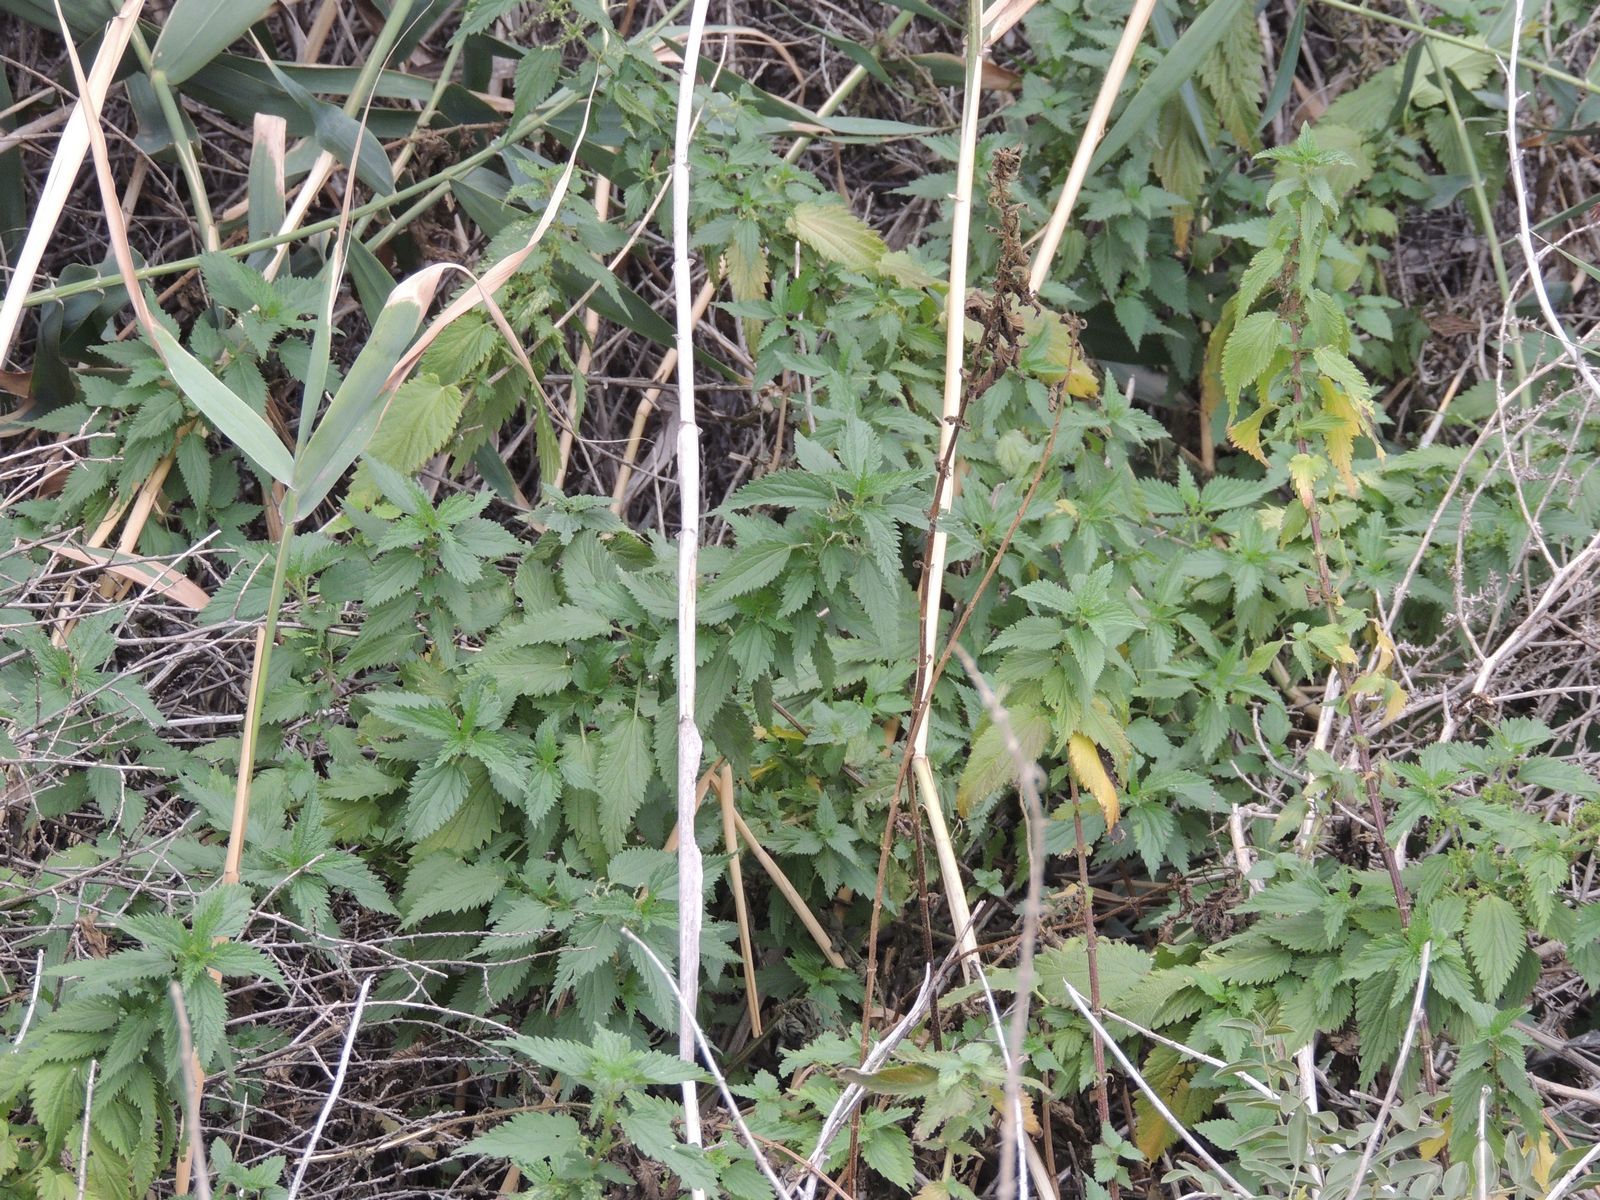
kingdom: Plantae
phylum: Tracheophyta
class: Magnoliopsida
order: Rosales
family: Urticaceae
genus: Urtica
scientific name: Urtica dioica
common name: Common nettle
